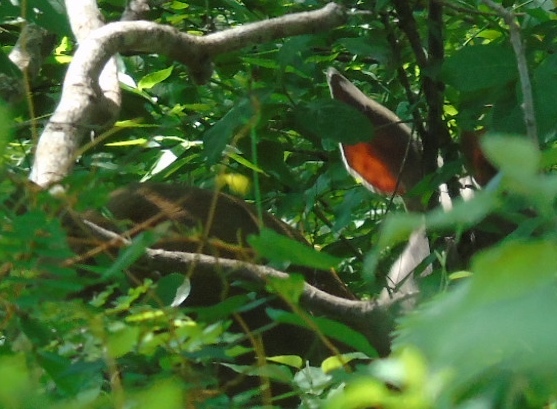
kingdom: Animalia
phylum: Chordata
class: Mammalia
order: Artiodactyla
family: Cervidae
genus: Odocoileus
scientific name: Odocoileus virginianus
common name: White-tailed deer
